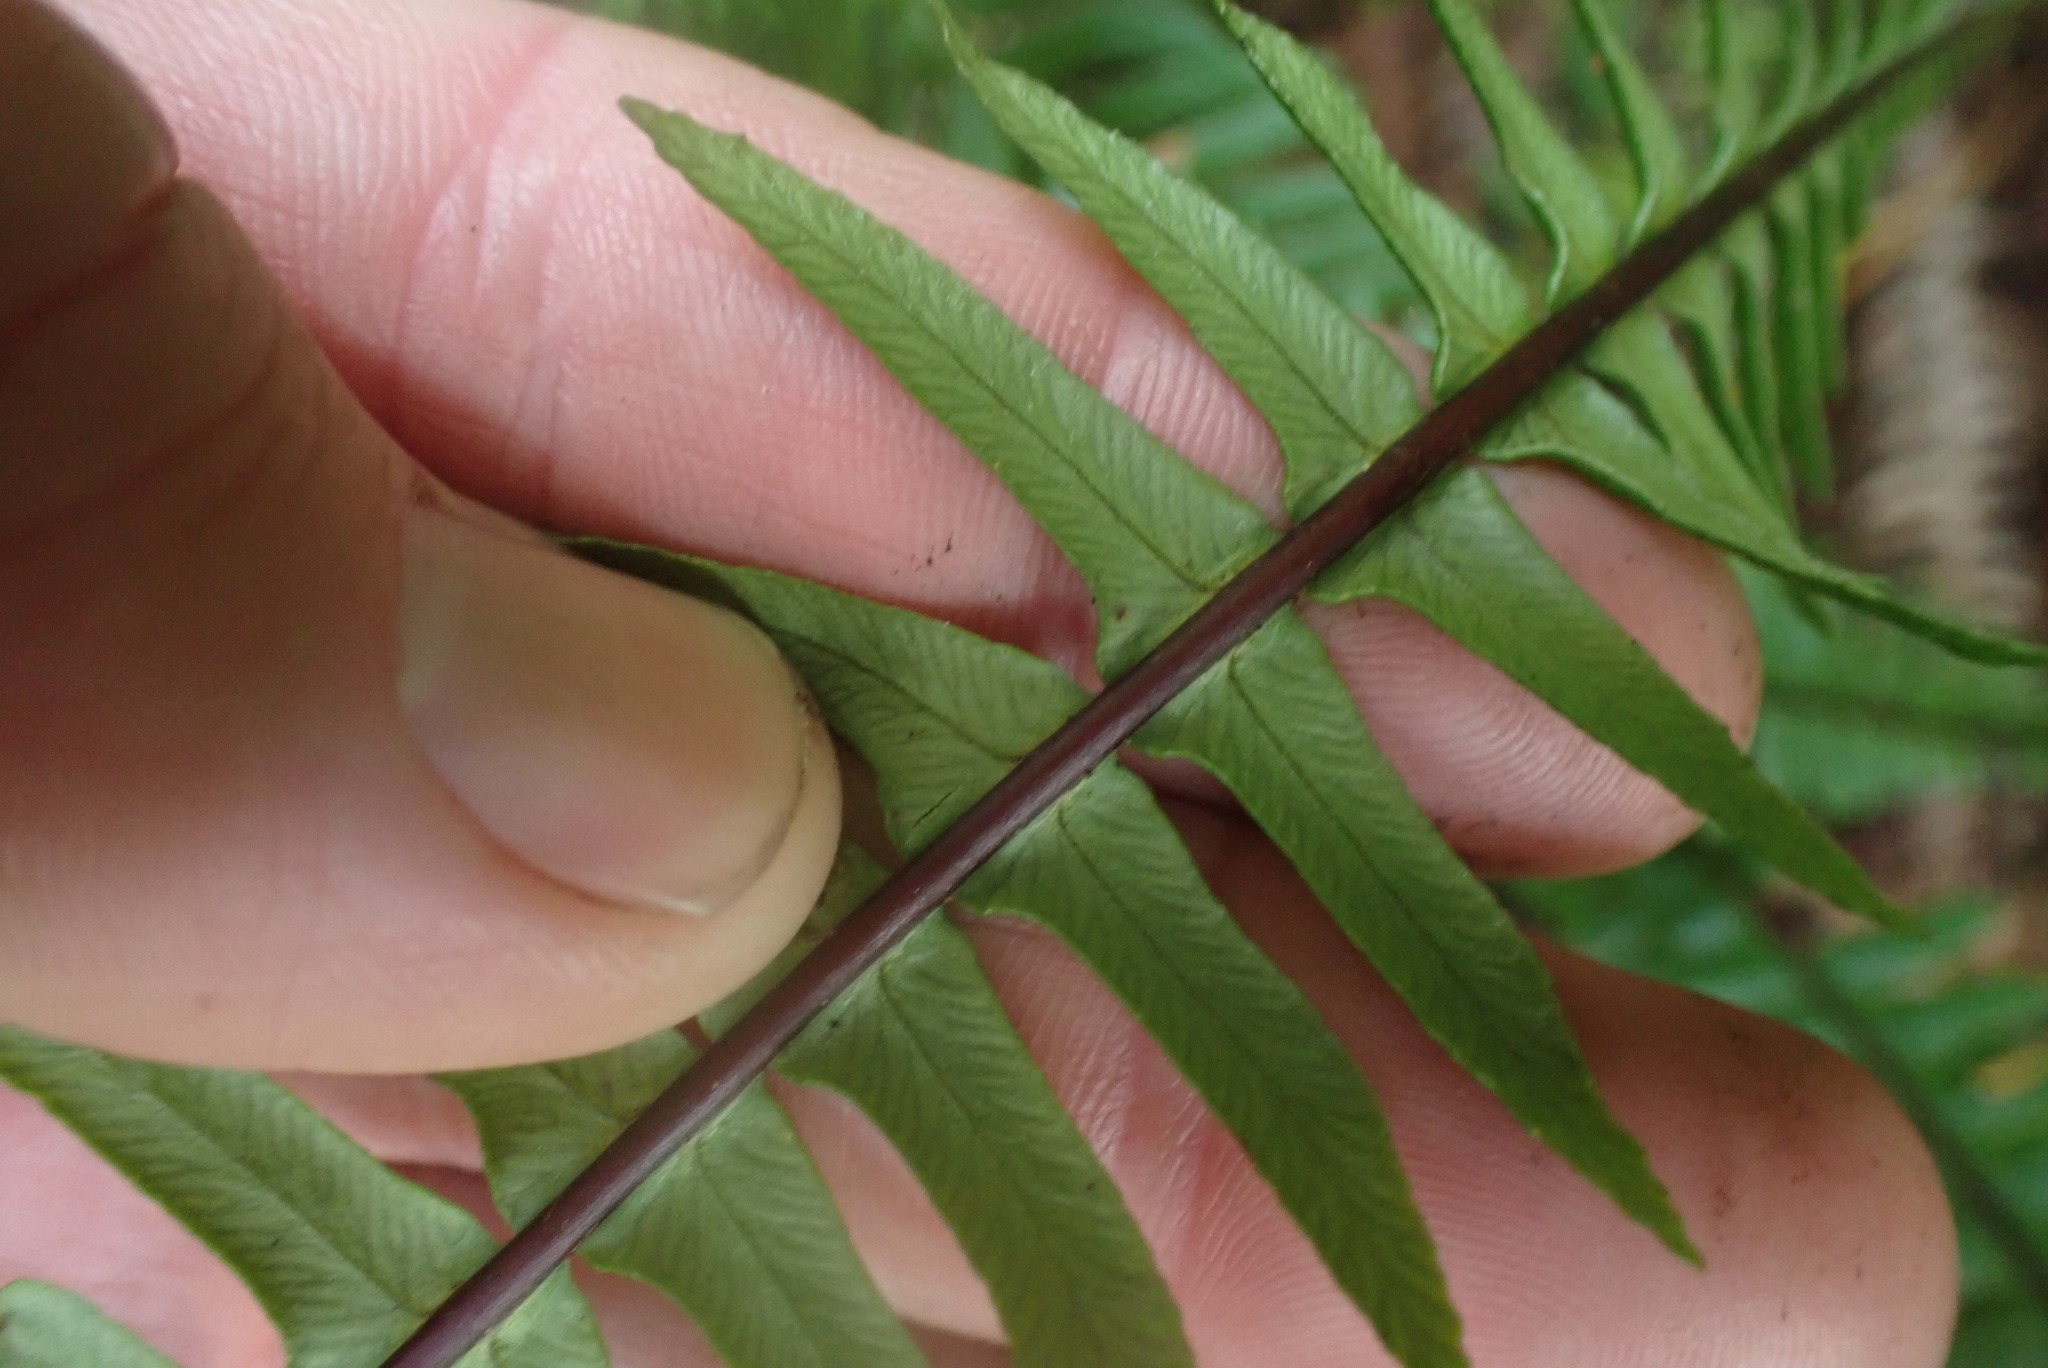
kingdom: Plantae
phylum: Tracheophyta
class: Polypodiopsida
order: Polypodiales
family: Blechnaceae
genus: Struthiopteris
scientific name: Struthiopteris spicant
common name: Deer fern
